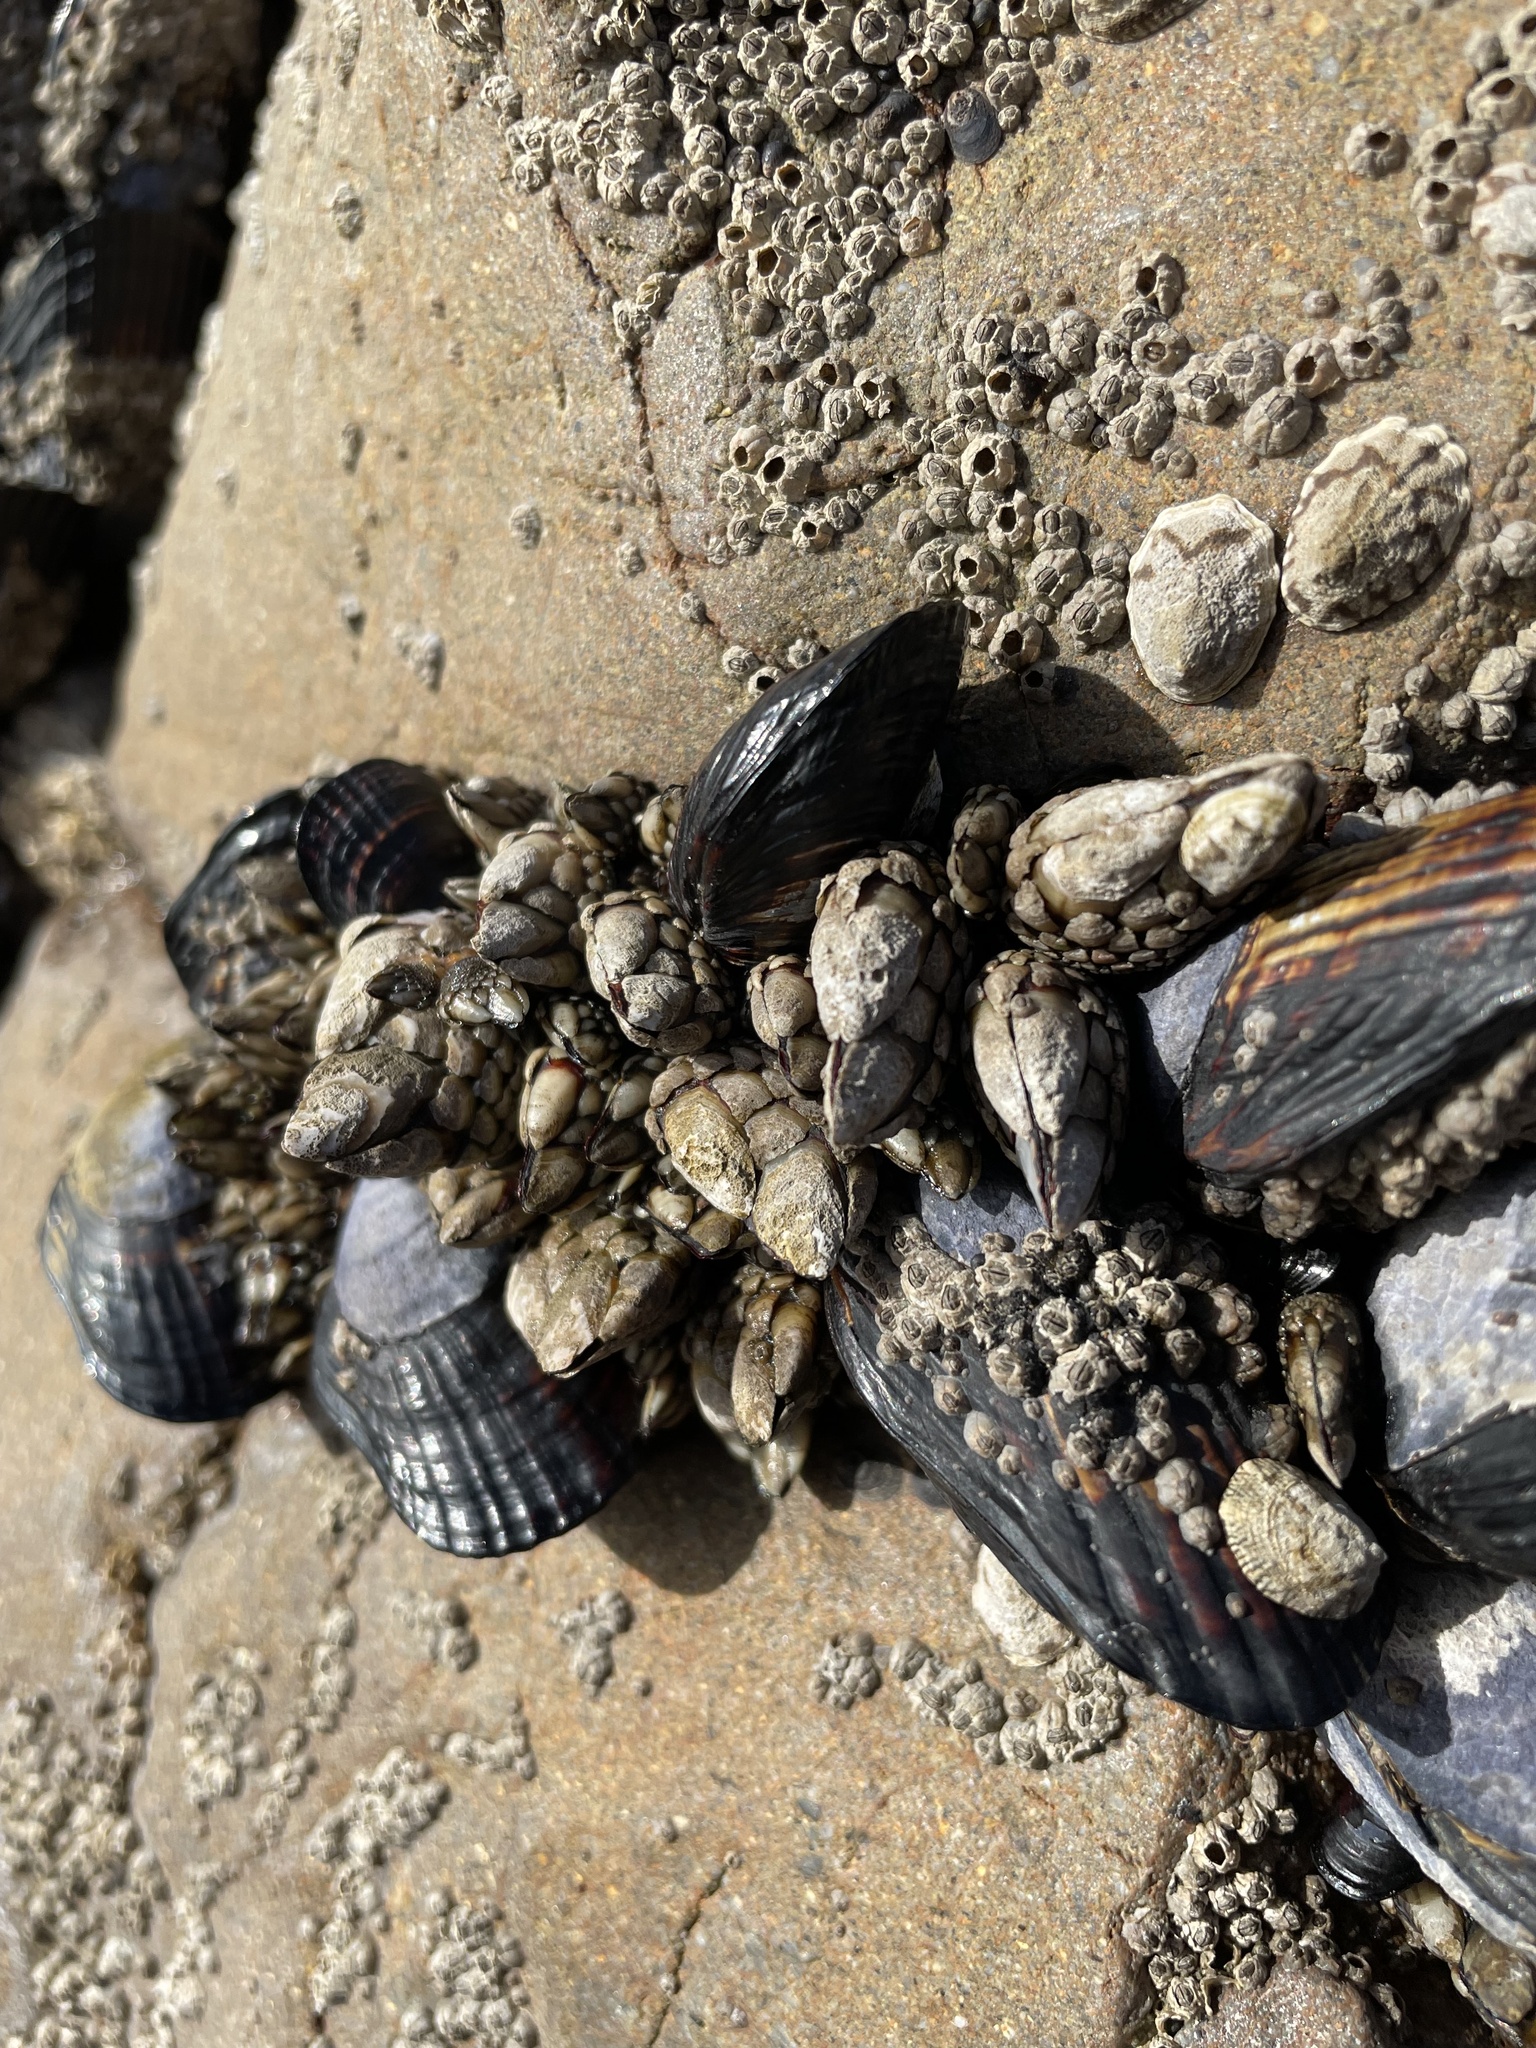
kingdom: Animalia
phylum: Arthropoda
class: Maxillopoda
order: Pedunculata
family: Pollicipedidae
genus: Pollicipes
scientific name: Pollicipes polymerus
